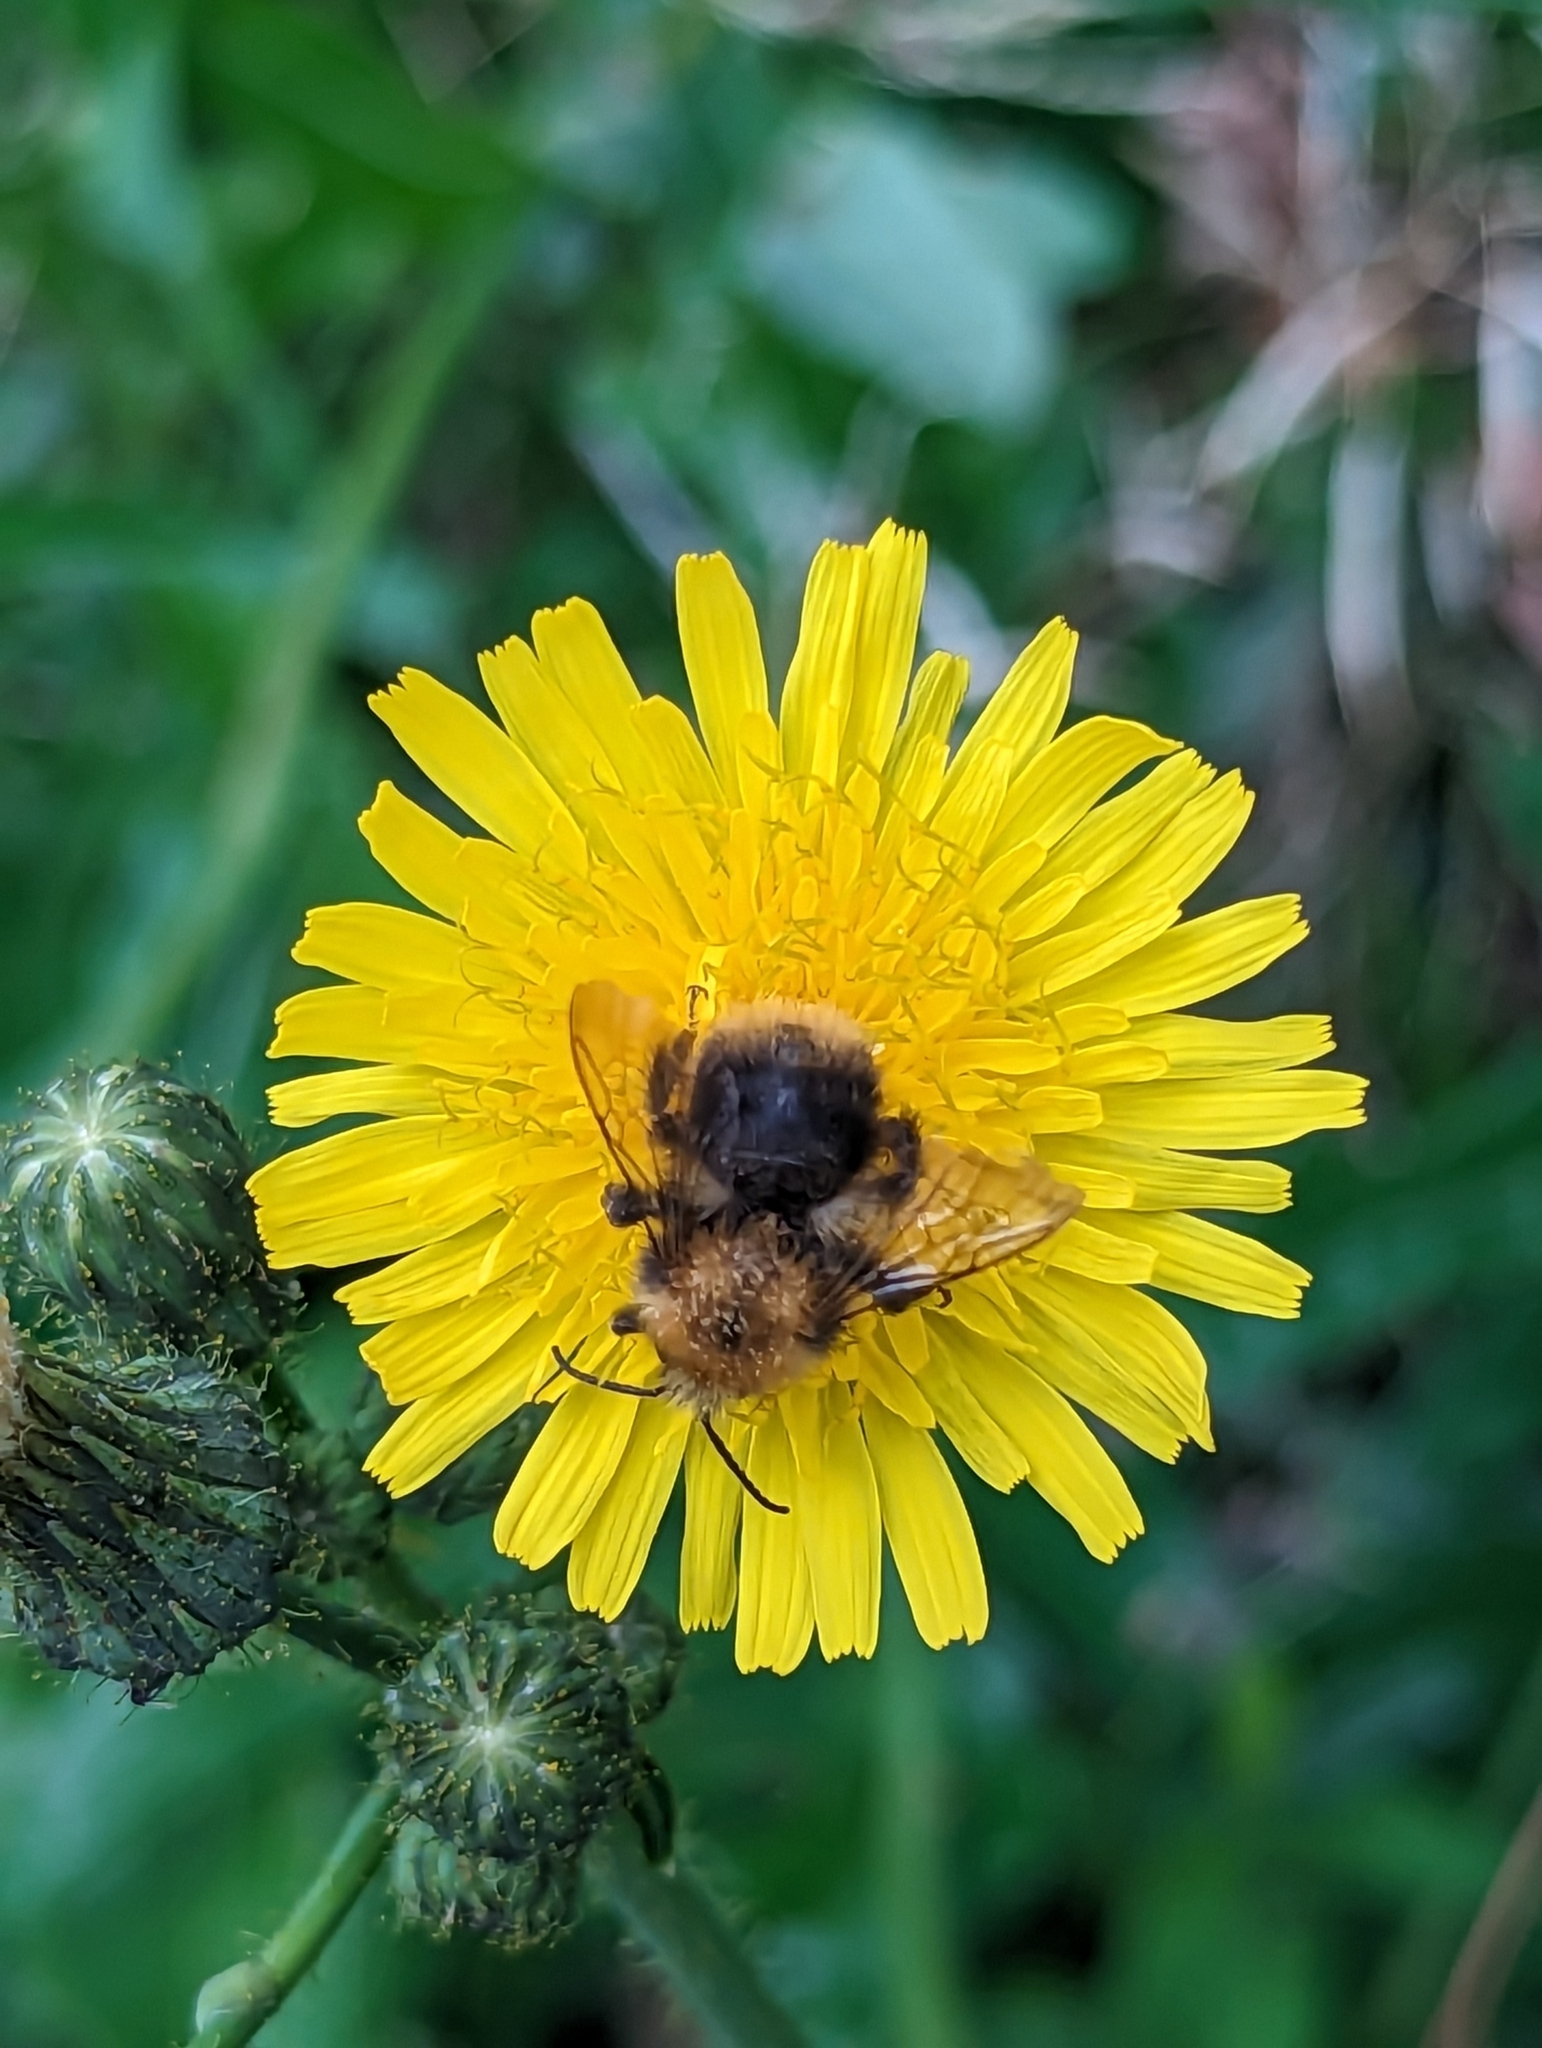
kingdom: Animalia
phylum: Arthropoda
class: Insecta
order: Hymenoptera
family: Apidae
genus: Bombus
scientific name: Bombus pascuorum
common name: Common carder bee
